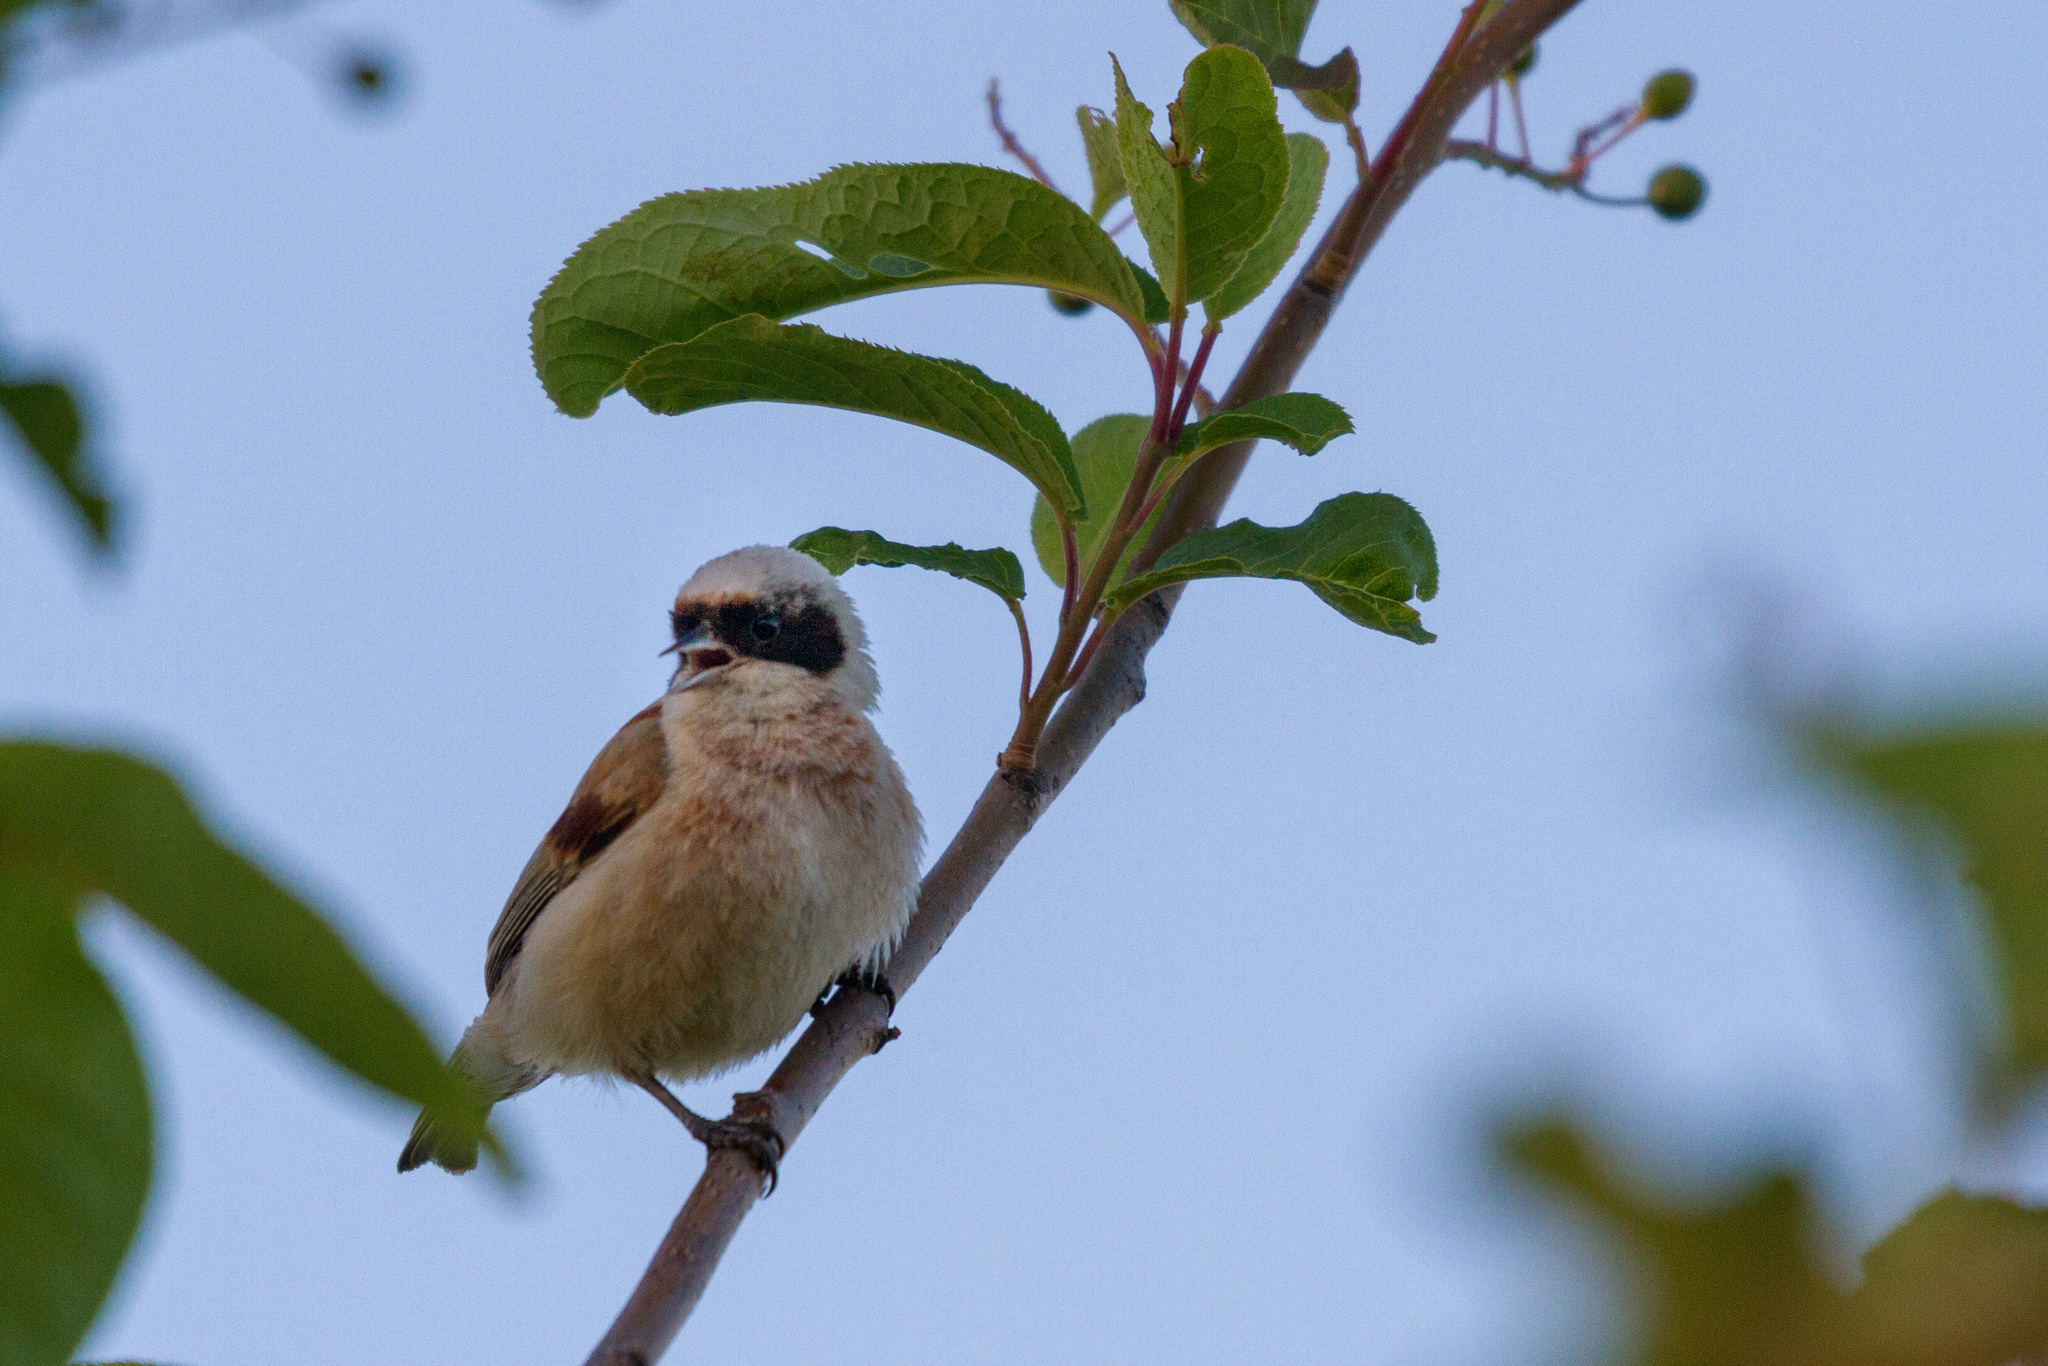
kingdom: Animalia
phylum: Chordata
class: Aves
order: Passeriformes
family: Remizidae
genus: Remiz
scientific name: Remiz pendulinus
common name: Eurasian penduline tit
